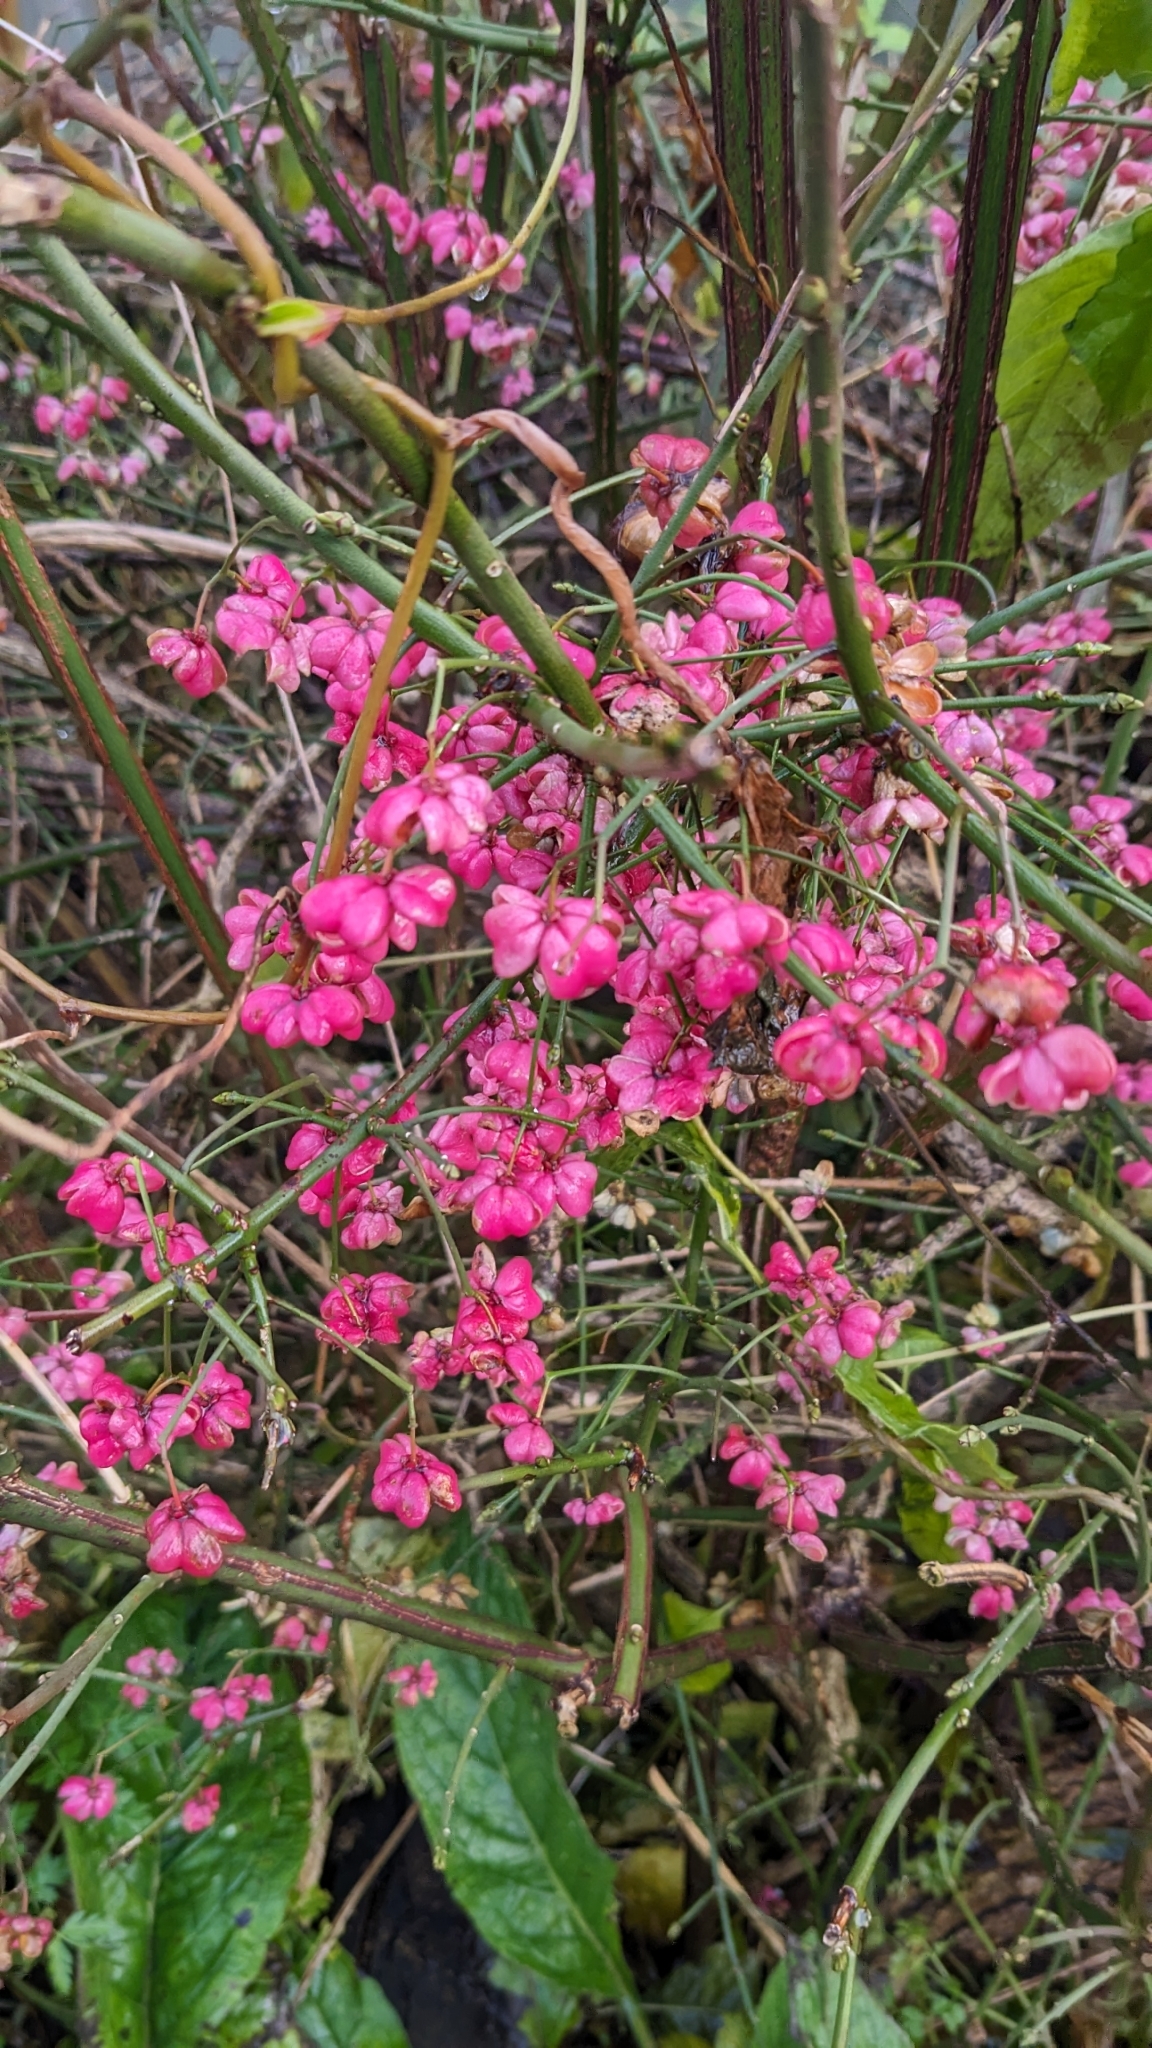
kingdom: Plantae
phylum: Tracheophyta
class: Magnoliopsida
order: Celastrales
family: Celastraceae
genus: Euonymus
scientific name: Euonymus europaeus
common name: Spindle
